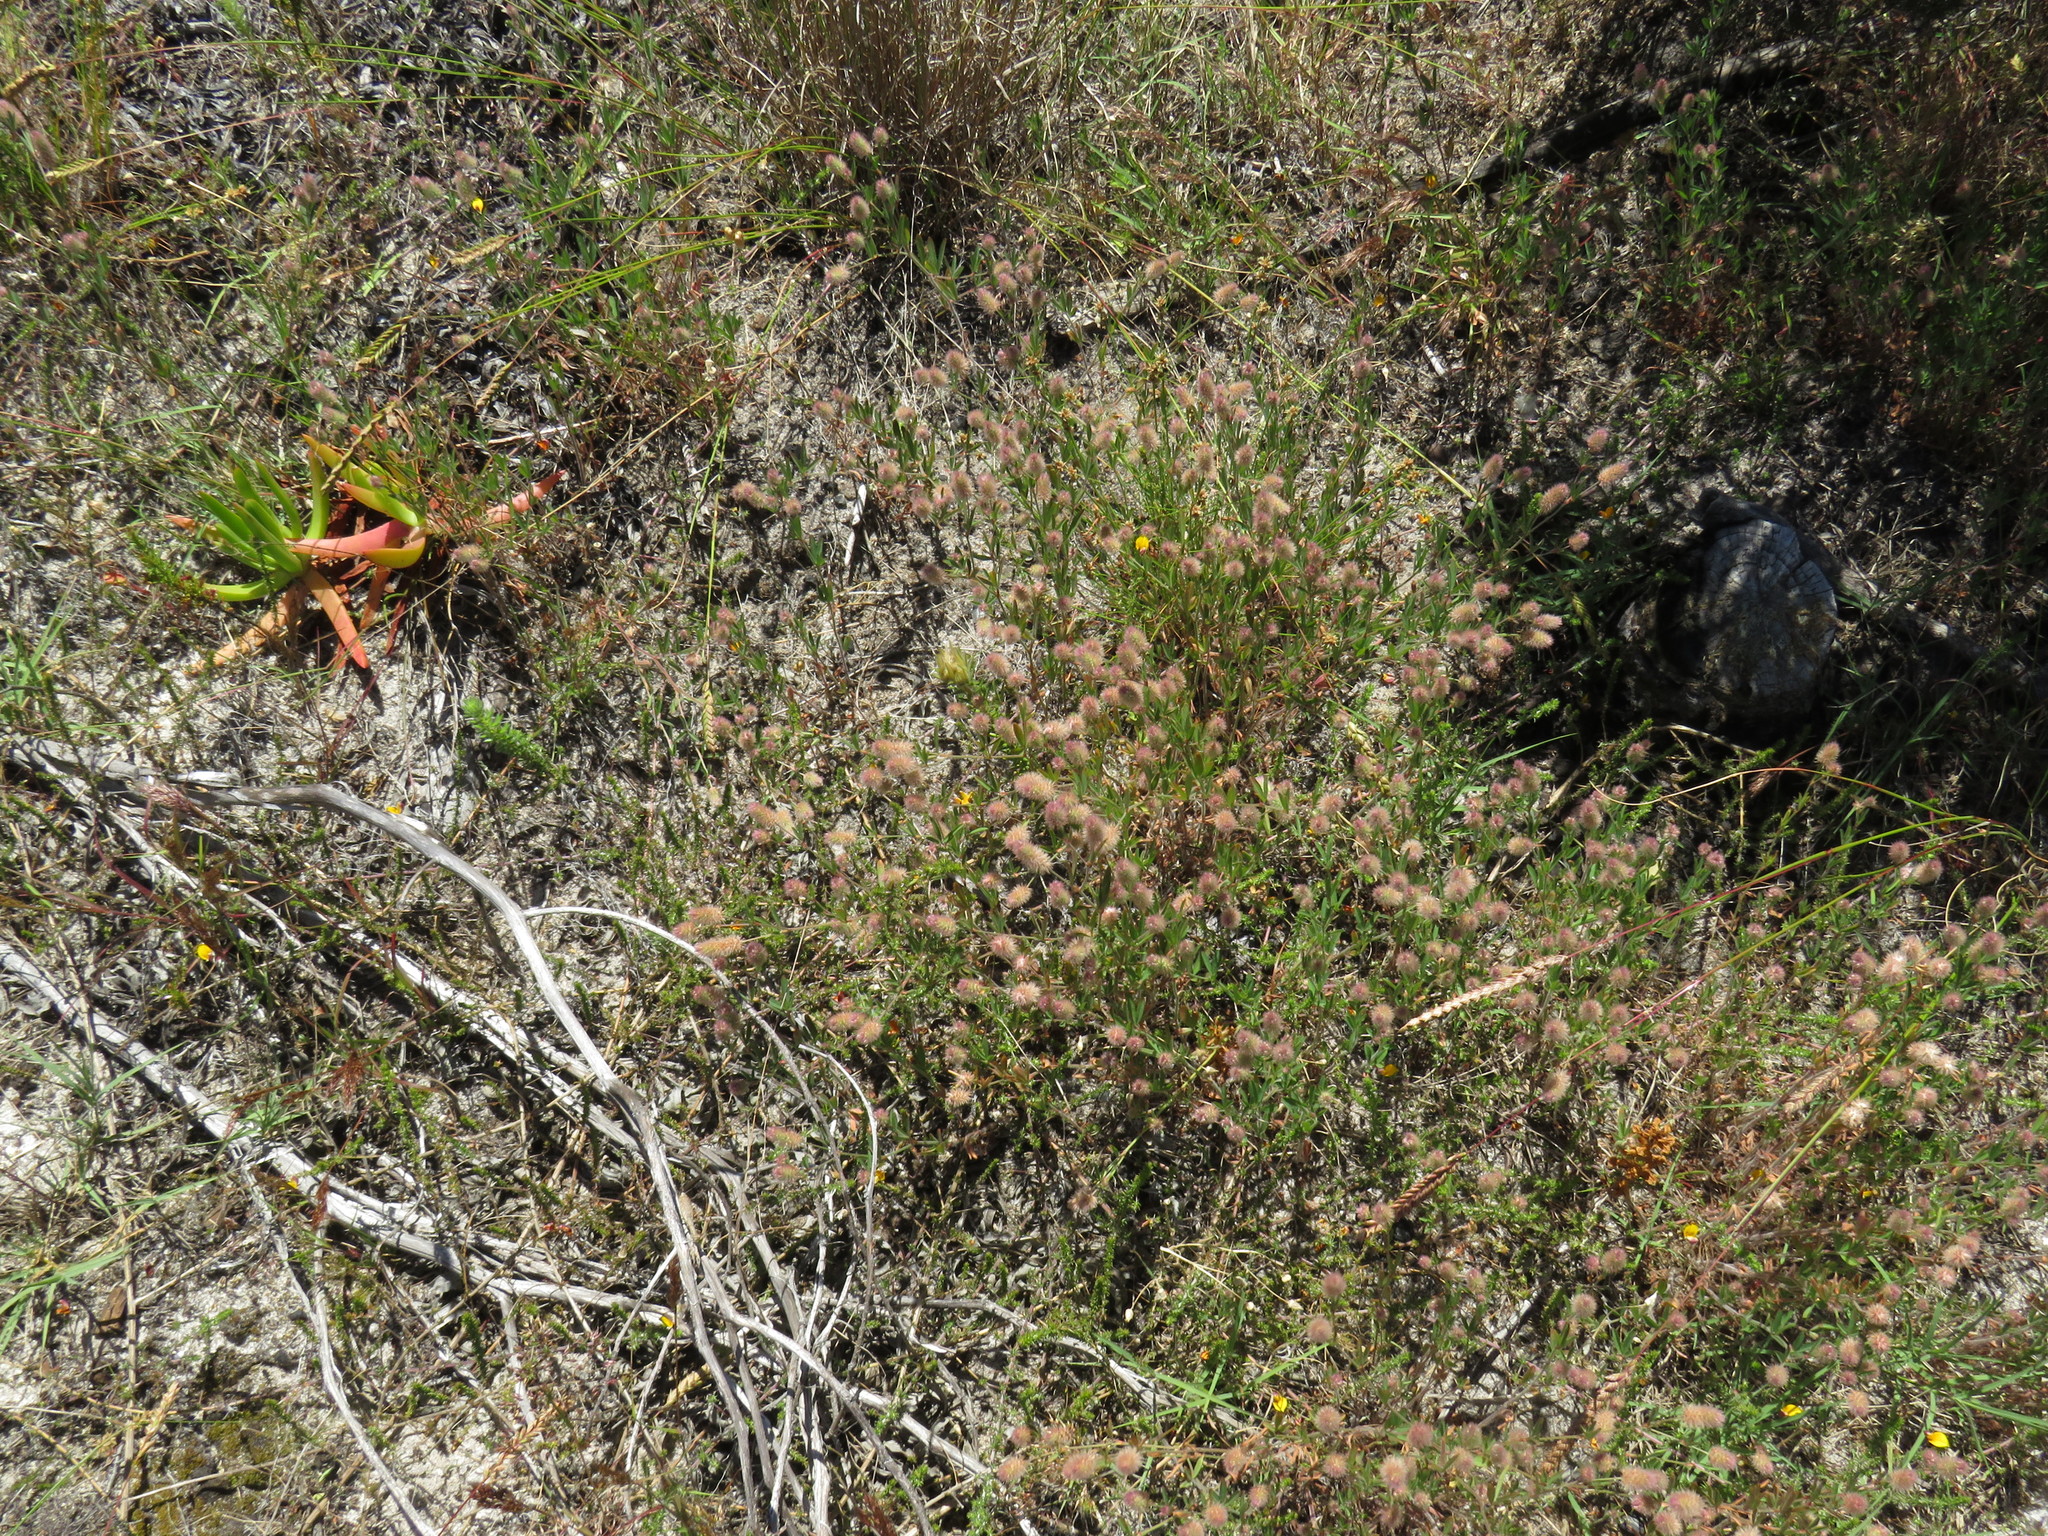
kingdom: Plantae
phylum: Tracheophyta
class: Magnoliopsida
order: Fabales
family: Fabaceae
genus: Trifolium
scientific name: Trifolium arvense
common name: Hare's-foot clover
